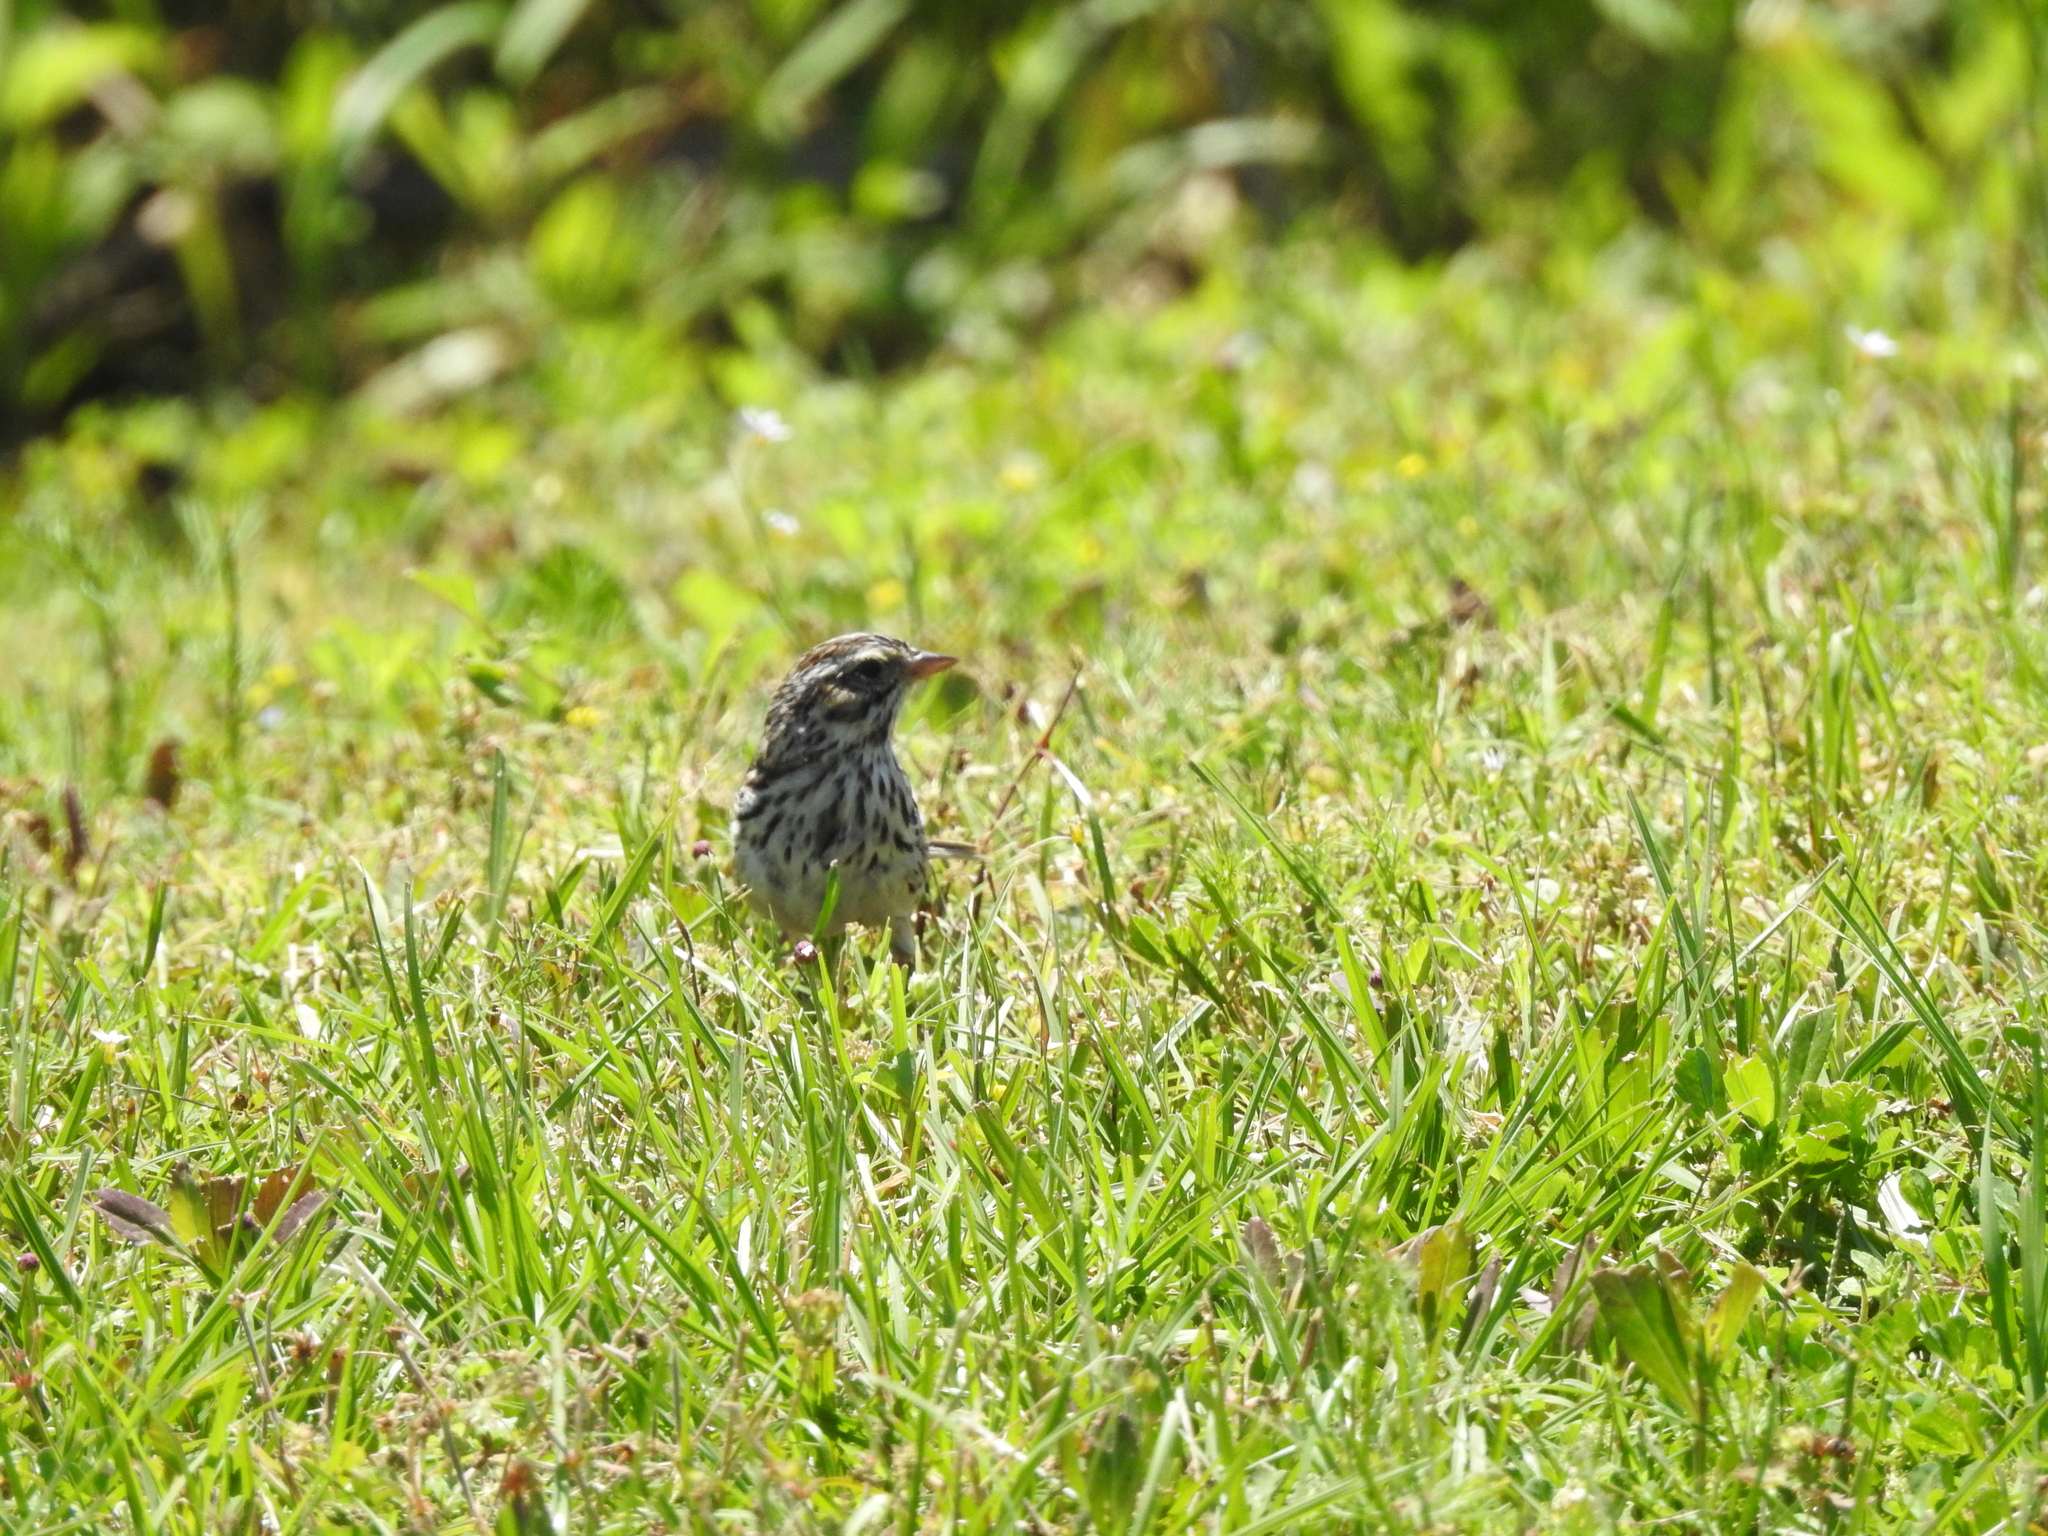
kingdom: Animalia
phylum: Chordata
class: Aves
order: Passeriformes
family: Passerellidae
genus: Passerculus
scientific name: Passerculus sandwichensis
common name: Savannah sparrow
